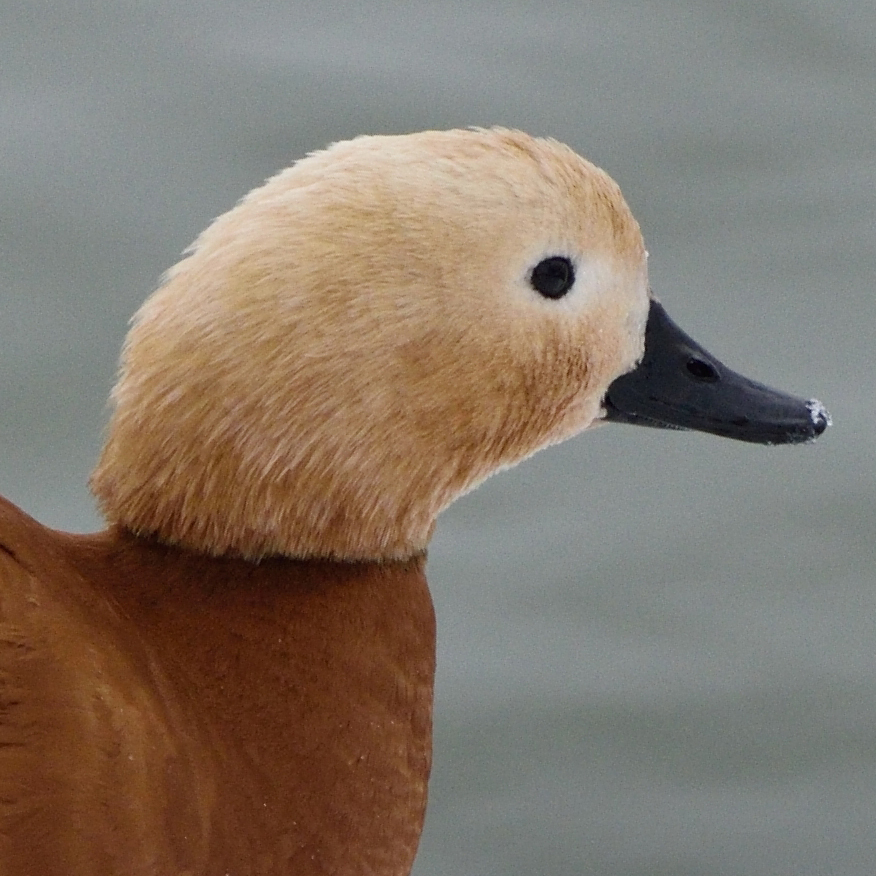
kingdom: Animalia
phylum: Chordata
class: Aves
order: Anseriformes
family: Anatidae
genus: Tadorna
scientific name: Tadorna ferruginea
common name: Ruddy shelduck
